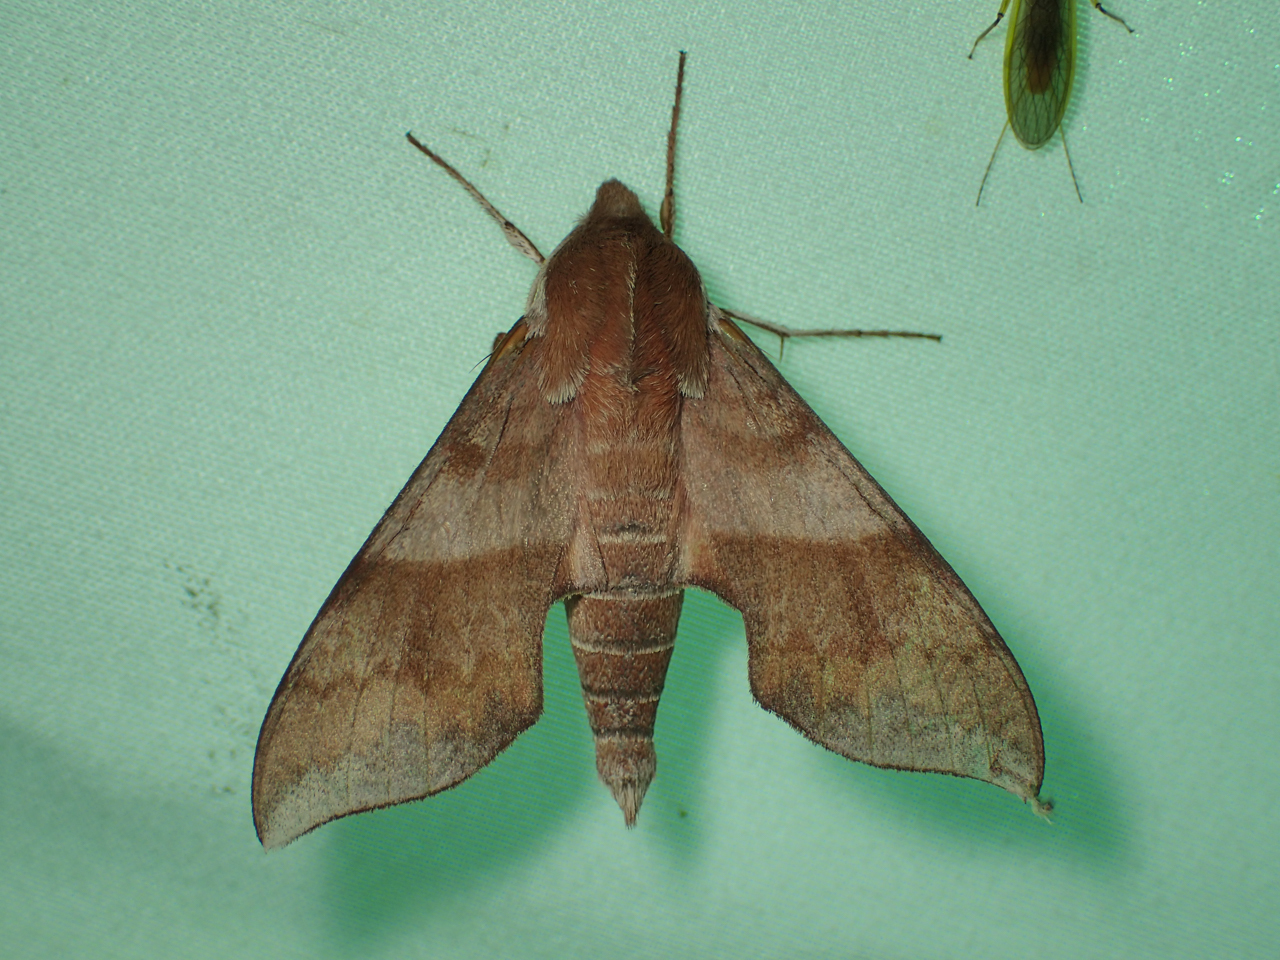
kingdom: Animalia
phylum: Arthropoda
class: Insecta
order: Lepidoptera
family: Sphingidae
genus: Darapsa
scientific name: Darapsa choerilus
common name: Azalea sphinx
